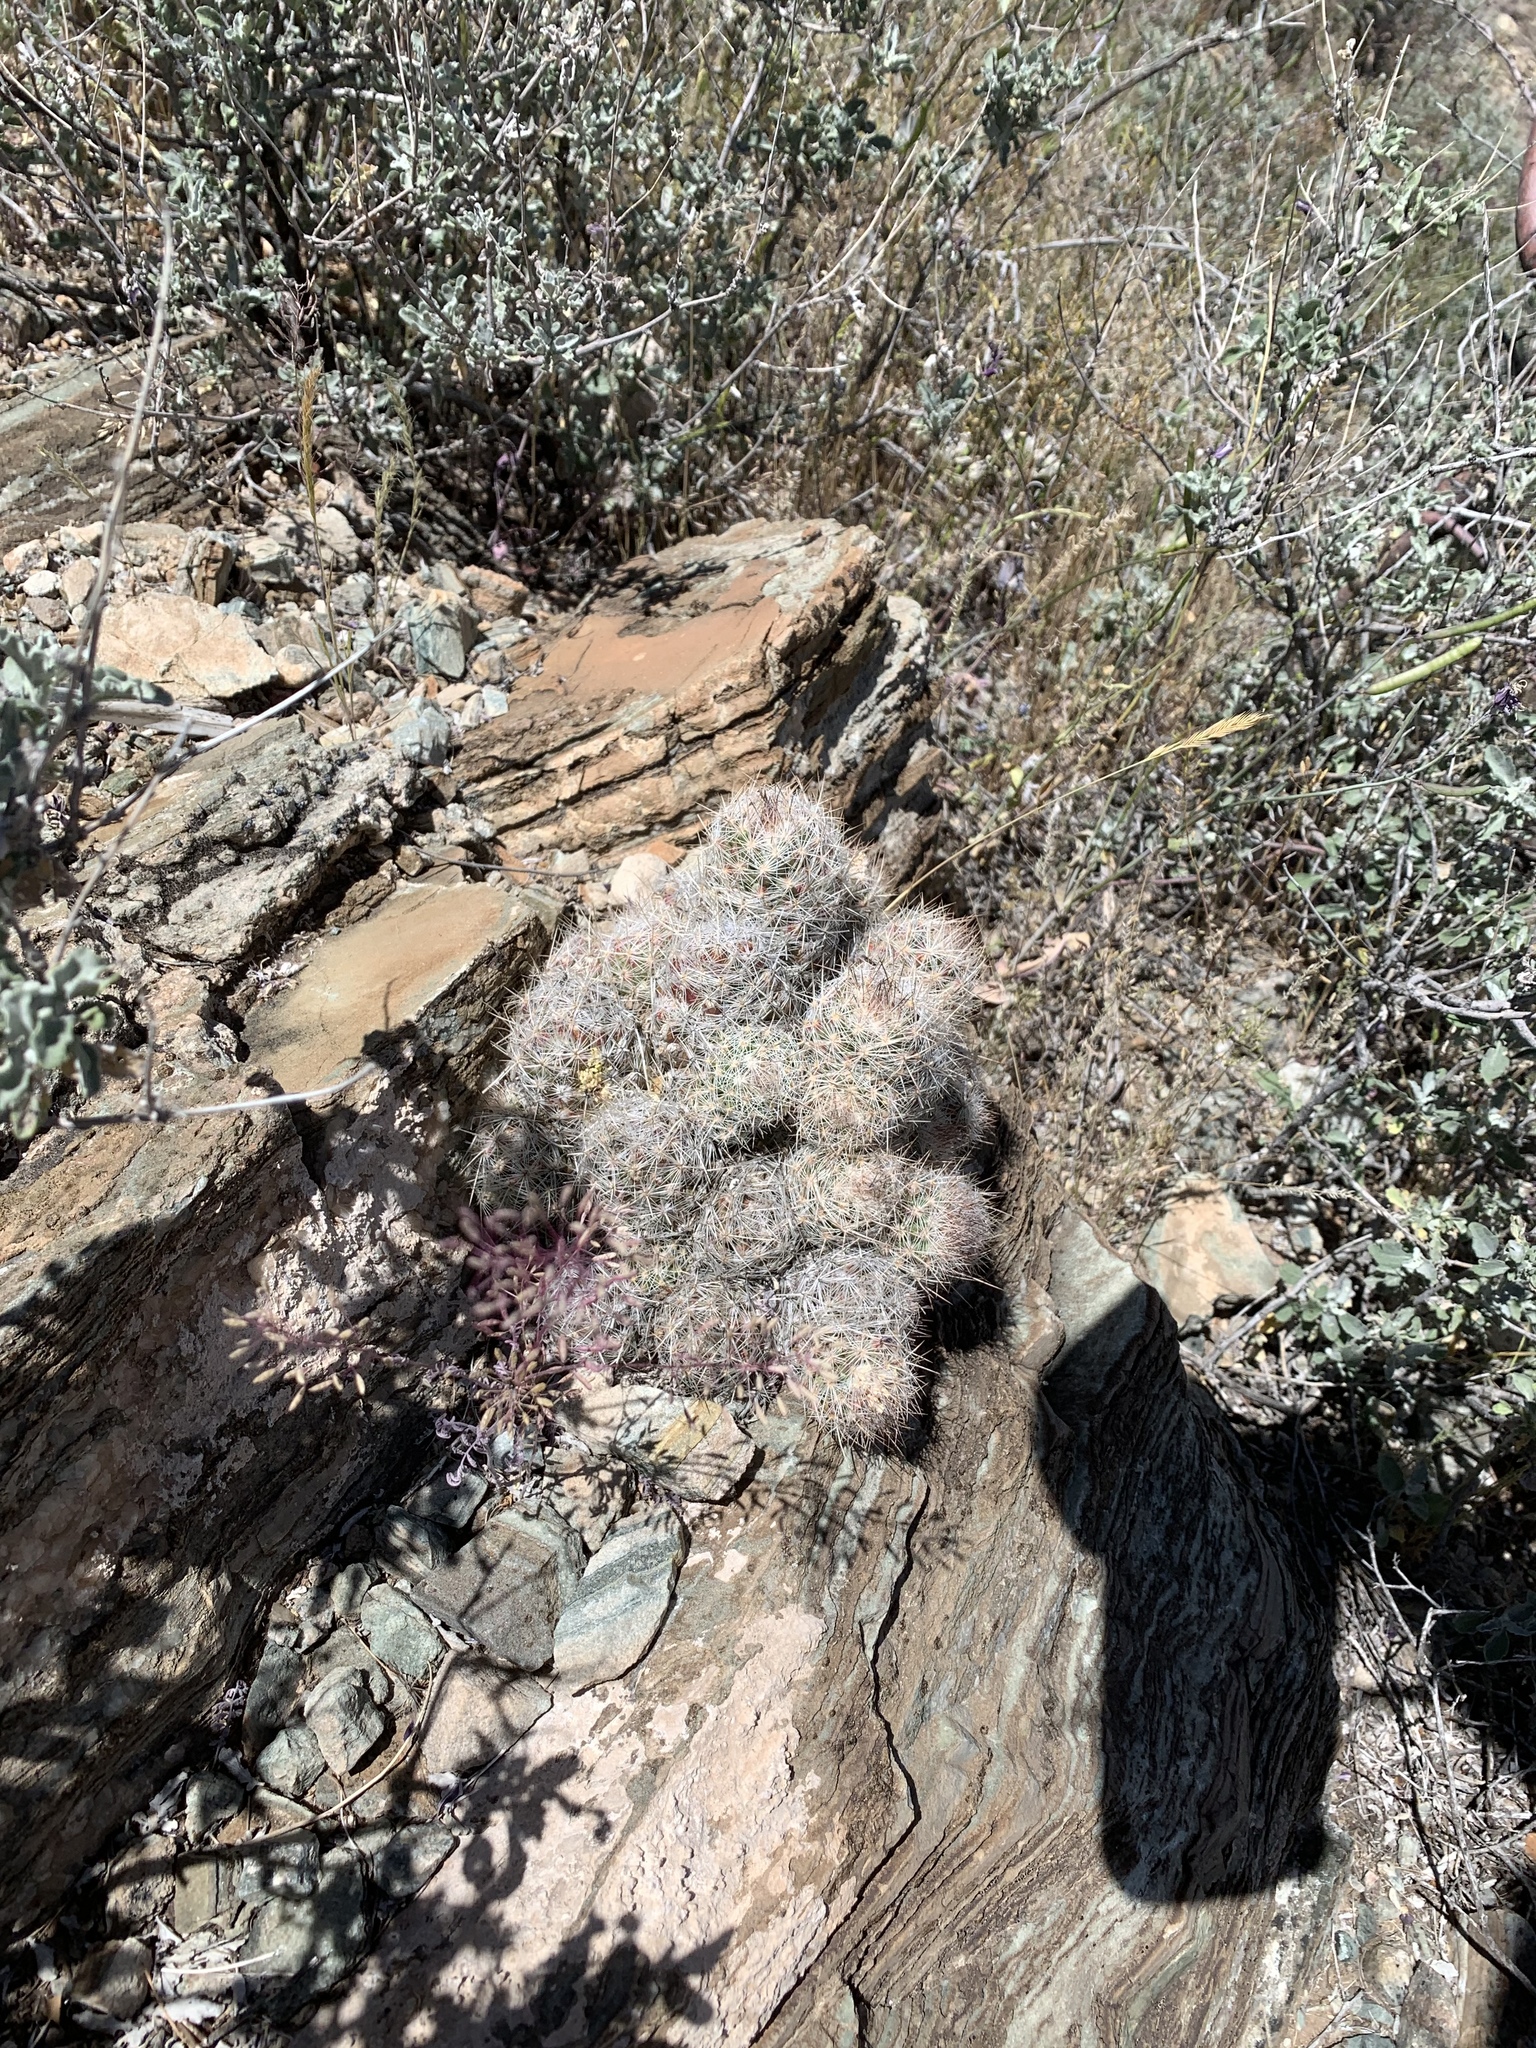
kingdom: Plantae
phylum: Tracheophyta
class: Magnoliopsida
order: Caryophyllales
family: Cactaceae
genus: Pelecyphora
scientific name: Pelecyphora tuberculosa
